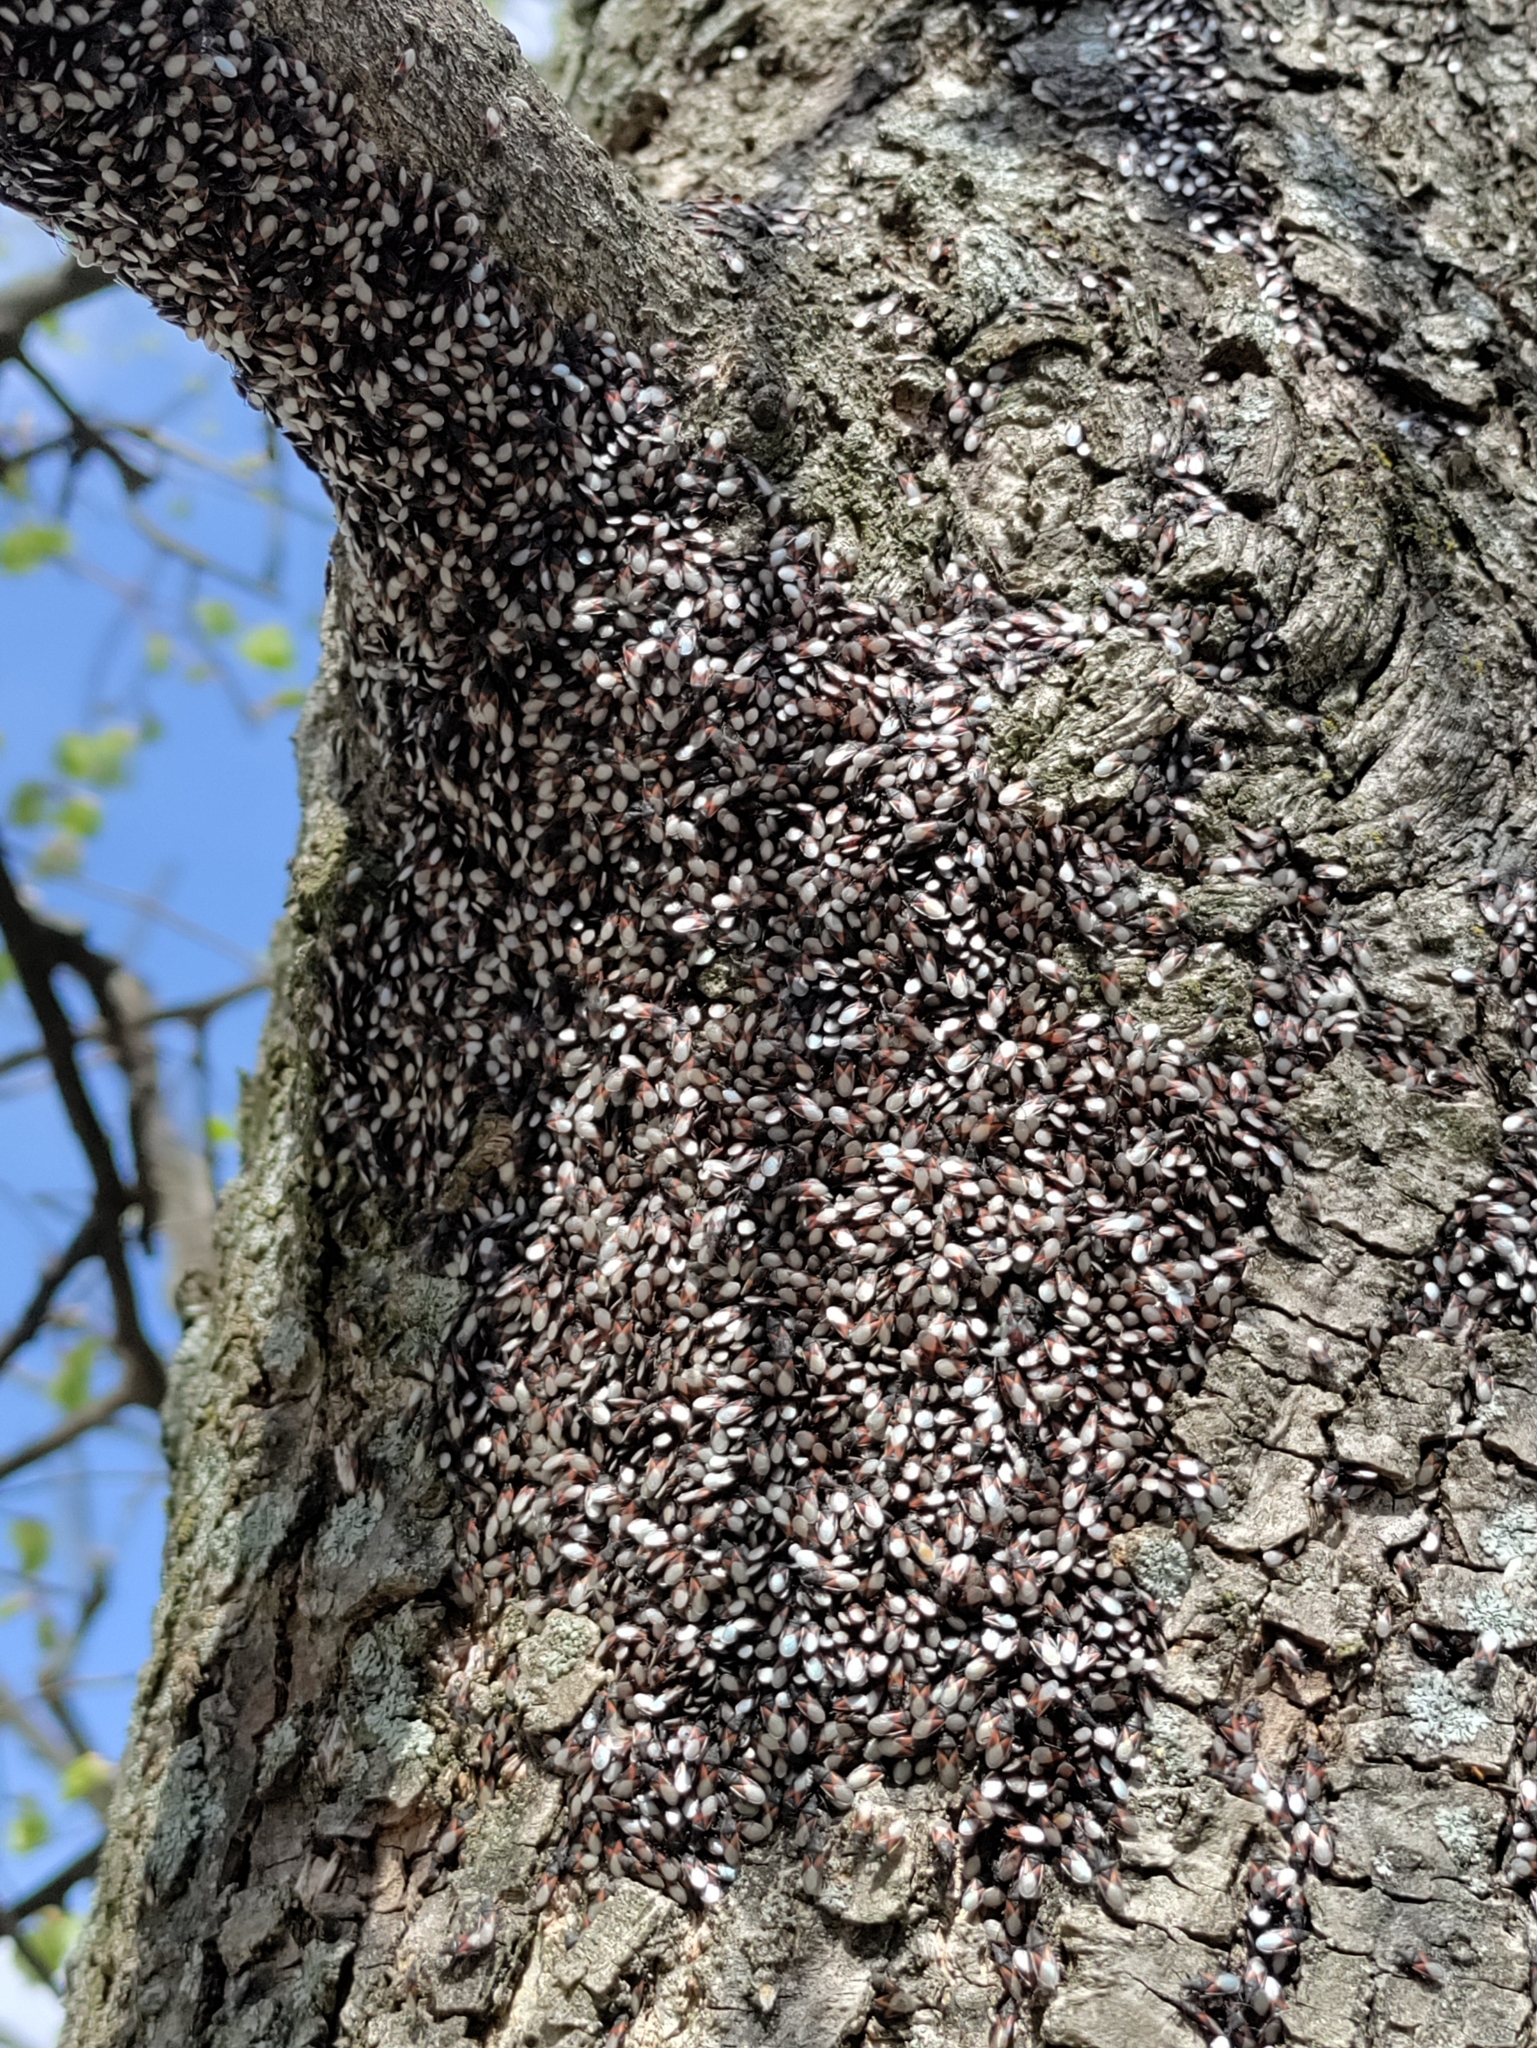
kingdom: Animalia
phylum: Arthropoda
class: Insecta
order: Hemiptera
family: Oxycarenidae
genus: Oxycarenus
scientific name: Oxycarenus lavaterae
